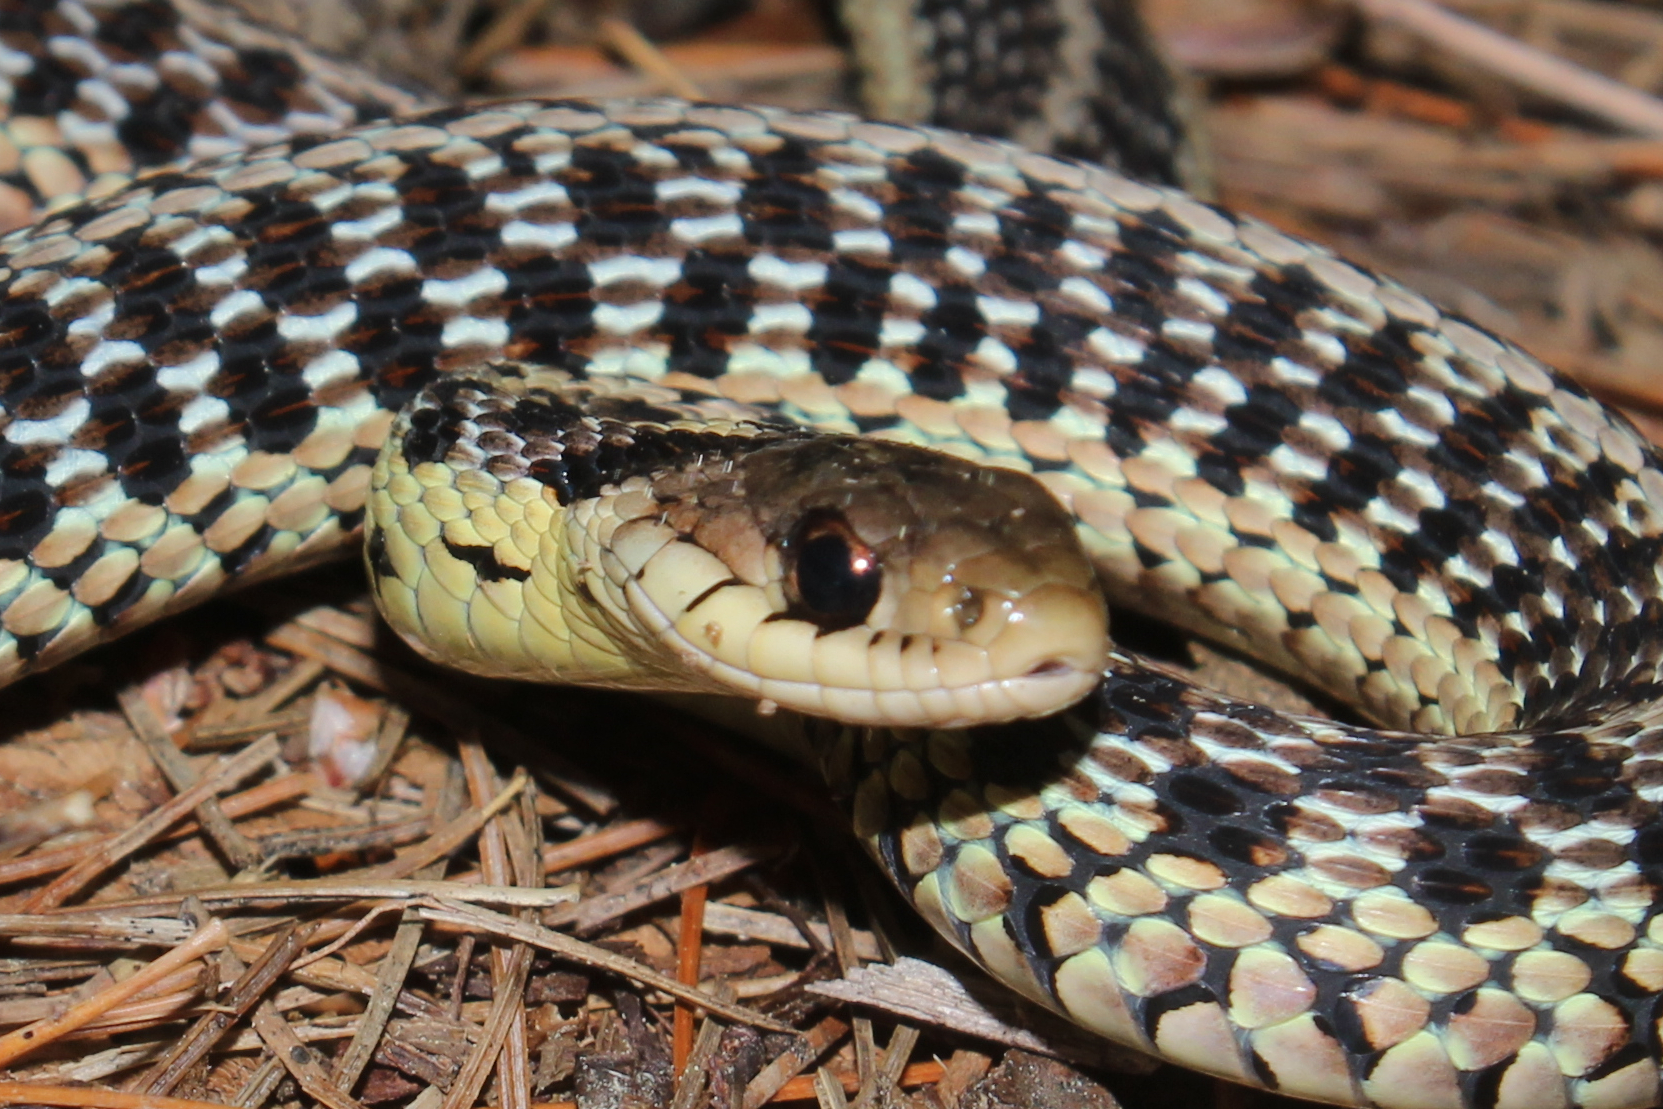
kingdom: Animalia
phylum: Chordata
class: Squamata
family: Colubridae
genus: Thamnophis
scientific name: Thamnophis sirtalis
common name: Common garter snake
